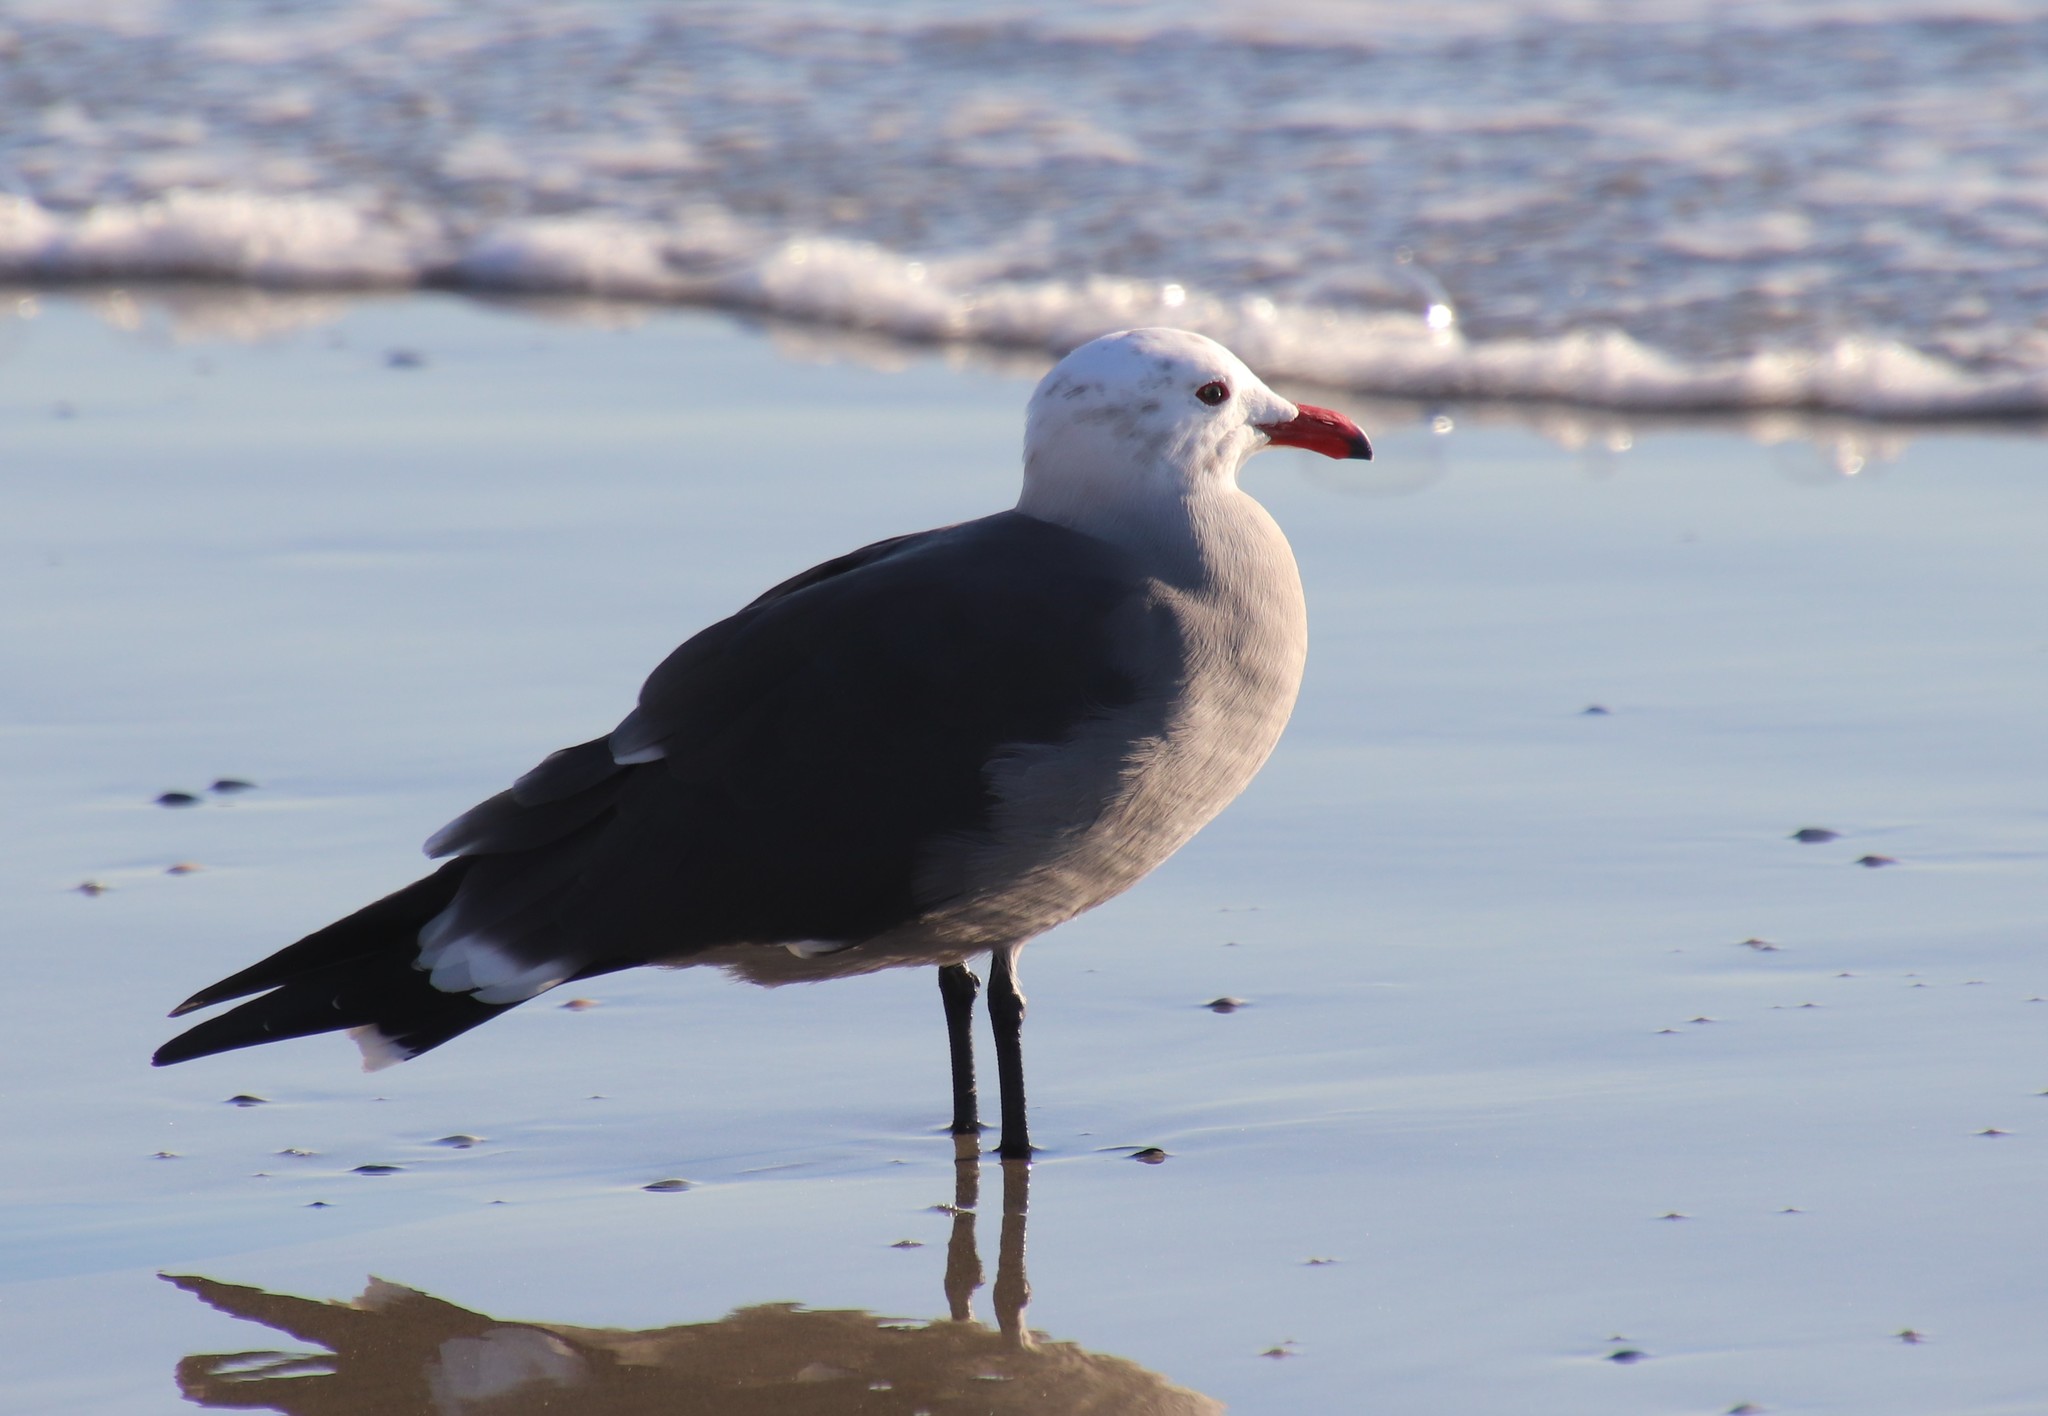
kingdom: Animalia
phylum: Chordata
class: Aves
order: Charadriiformes
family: Laridae
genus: Larus
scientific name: Larus heermanni
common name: Heermann's gull
